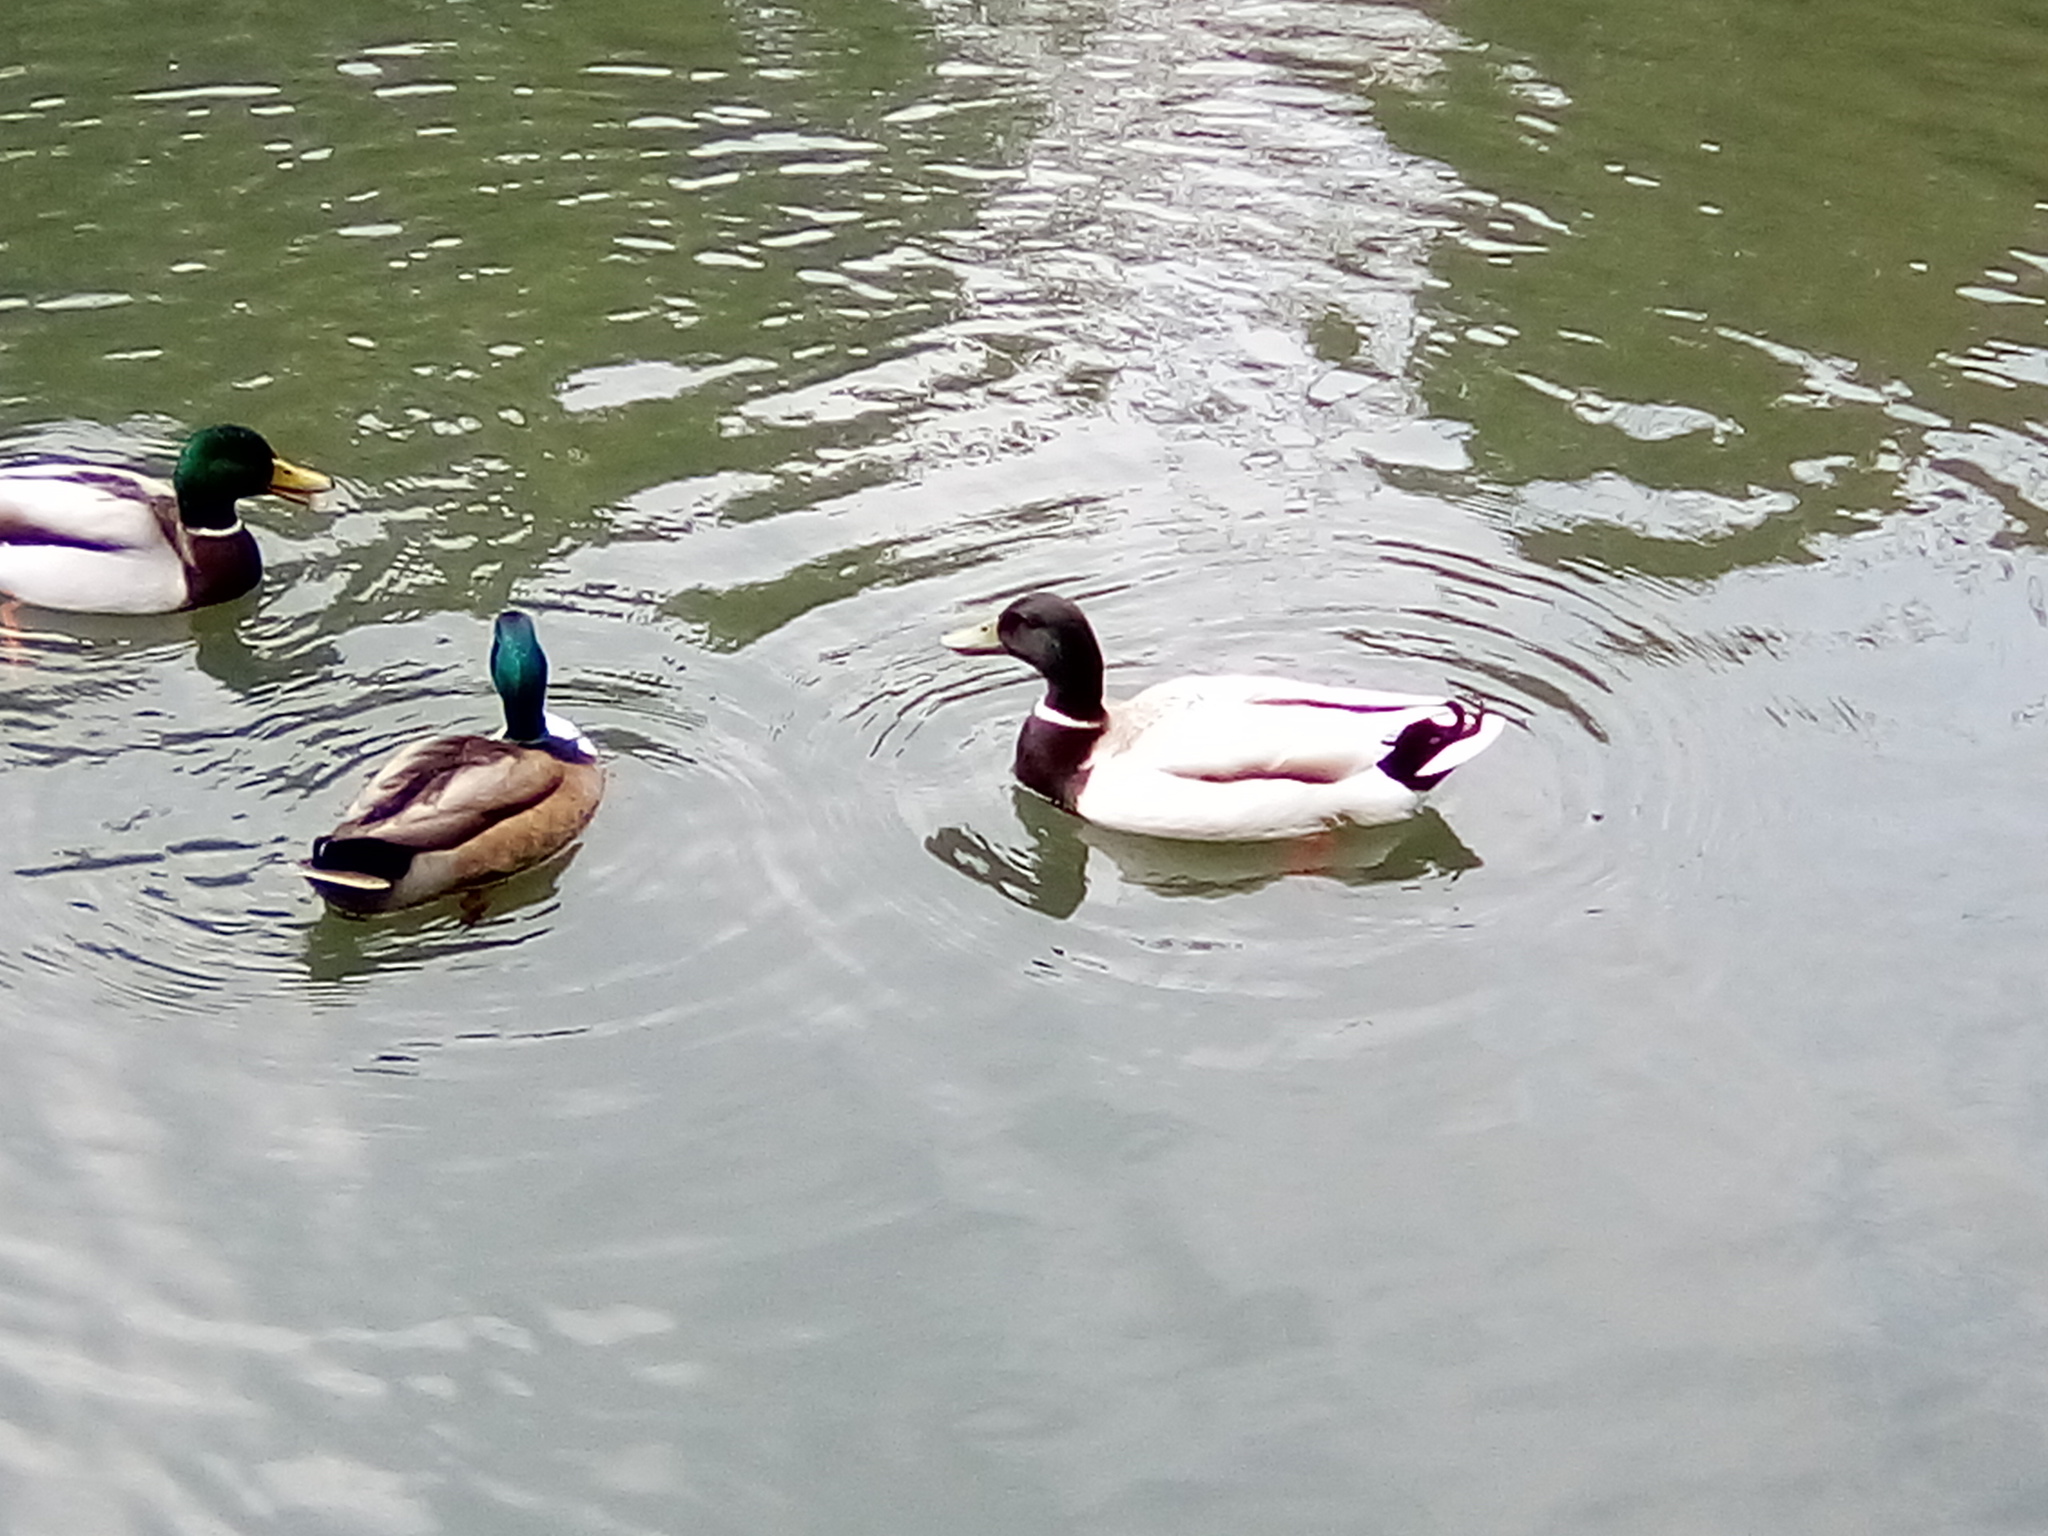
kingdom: Animalia
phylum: Chordata
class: Aves
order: Anseriformes
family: Anatidae
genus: Anas
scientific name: Anas platyrhynchos
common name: Mallard
